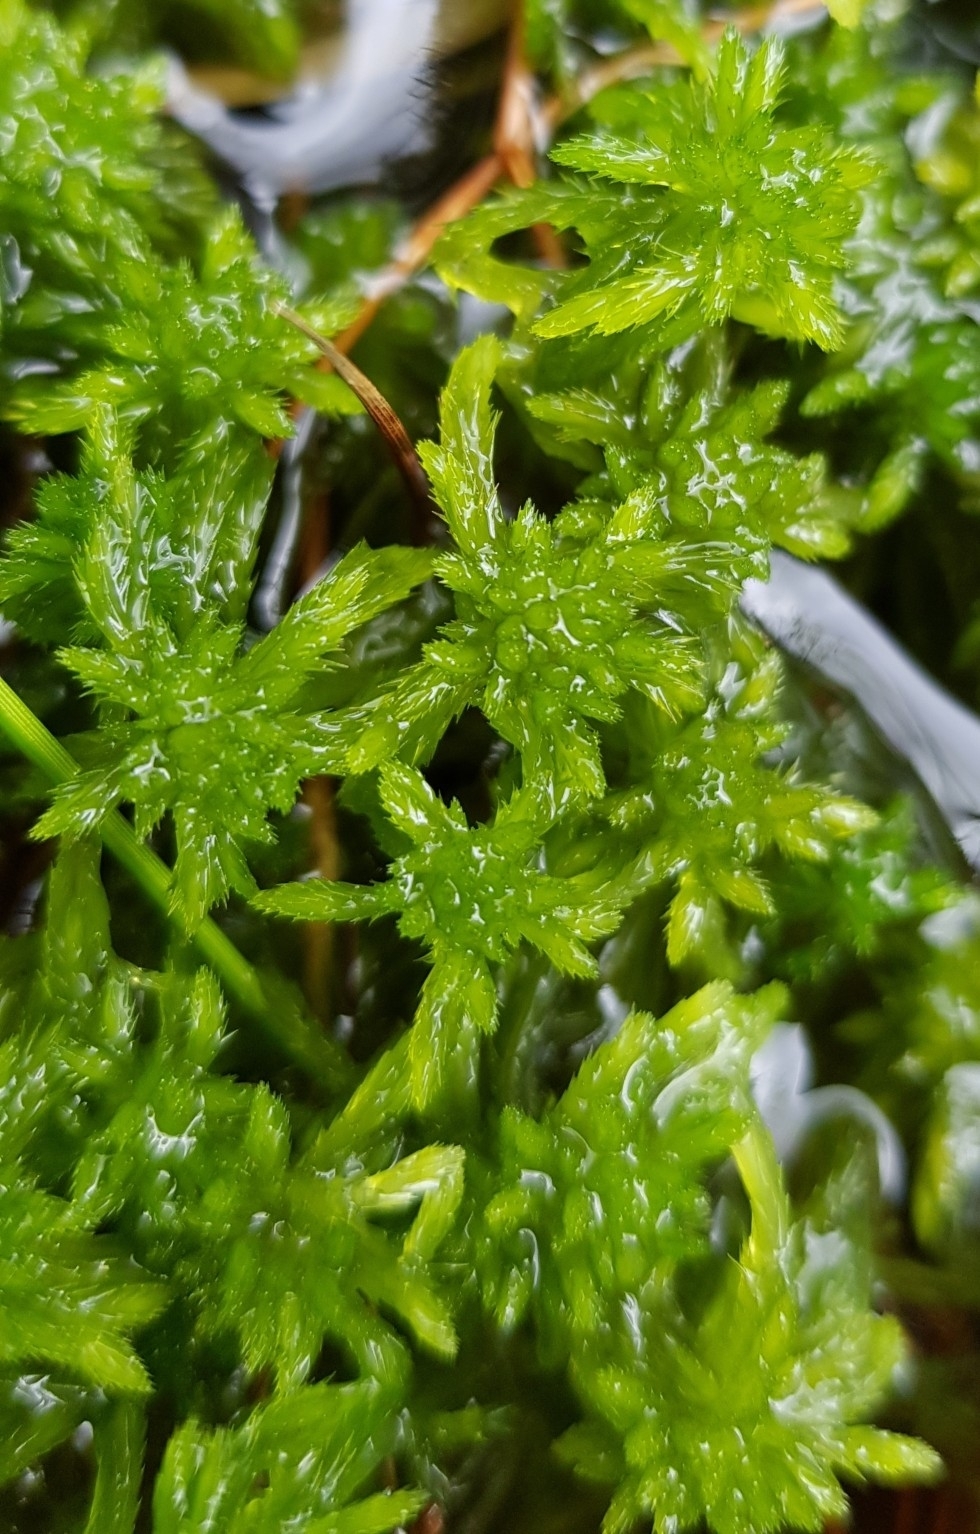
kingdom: Plantae
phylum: Bryophyta
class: Sphagnopsida
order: Sphagnales
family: Sphagnaceae
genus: Sphagnum
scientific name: Sphagnum fallax
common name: Flat-top peat moss
